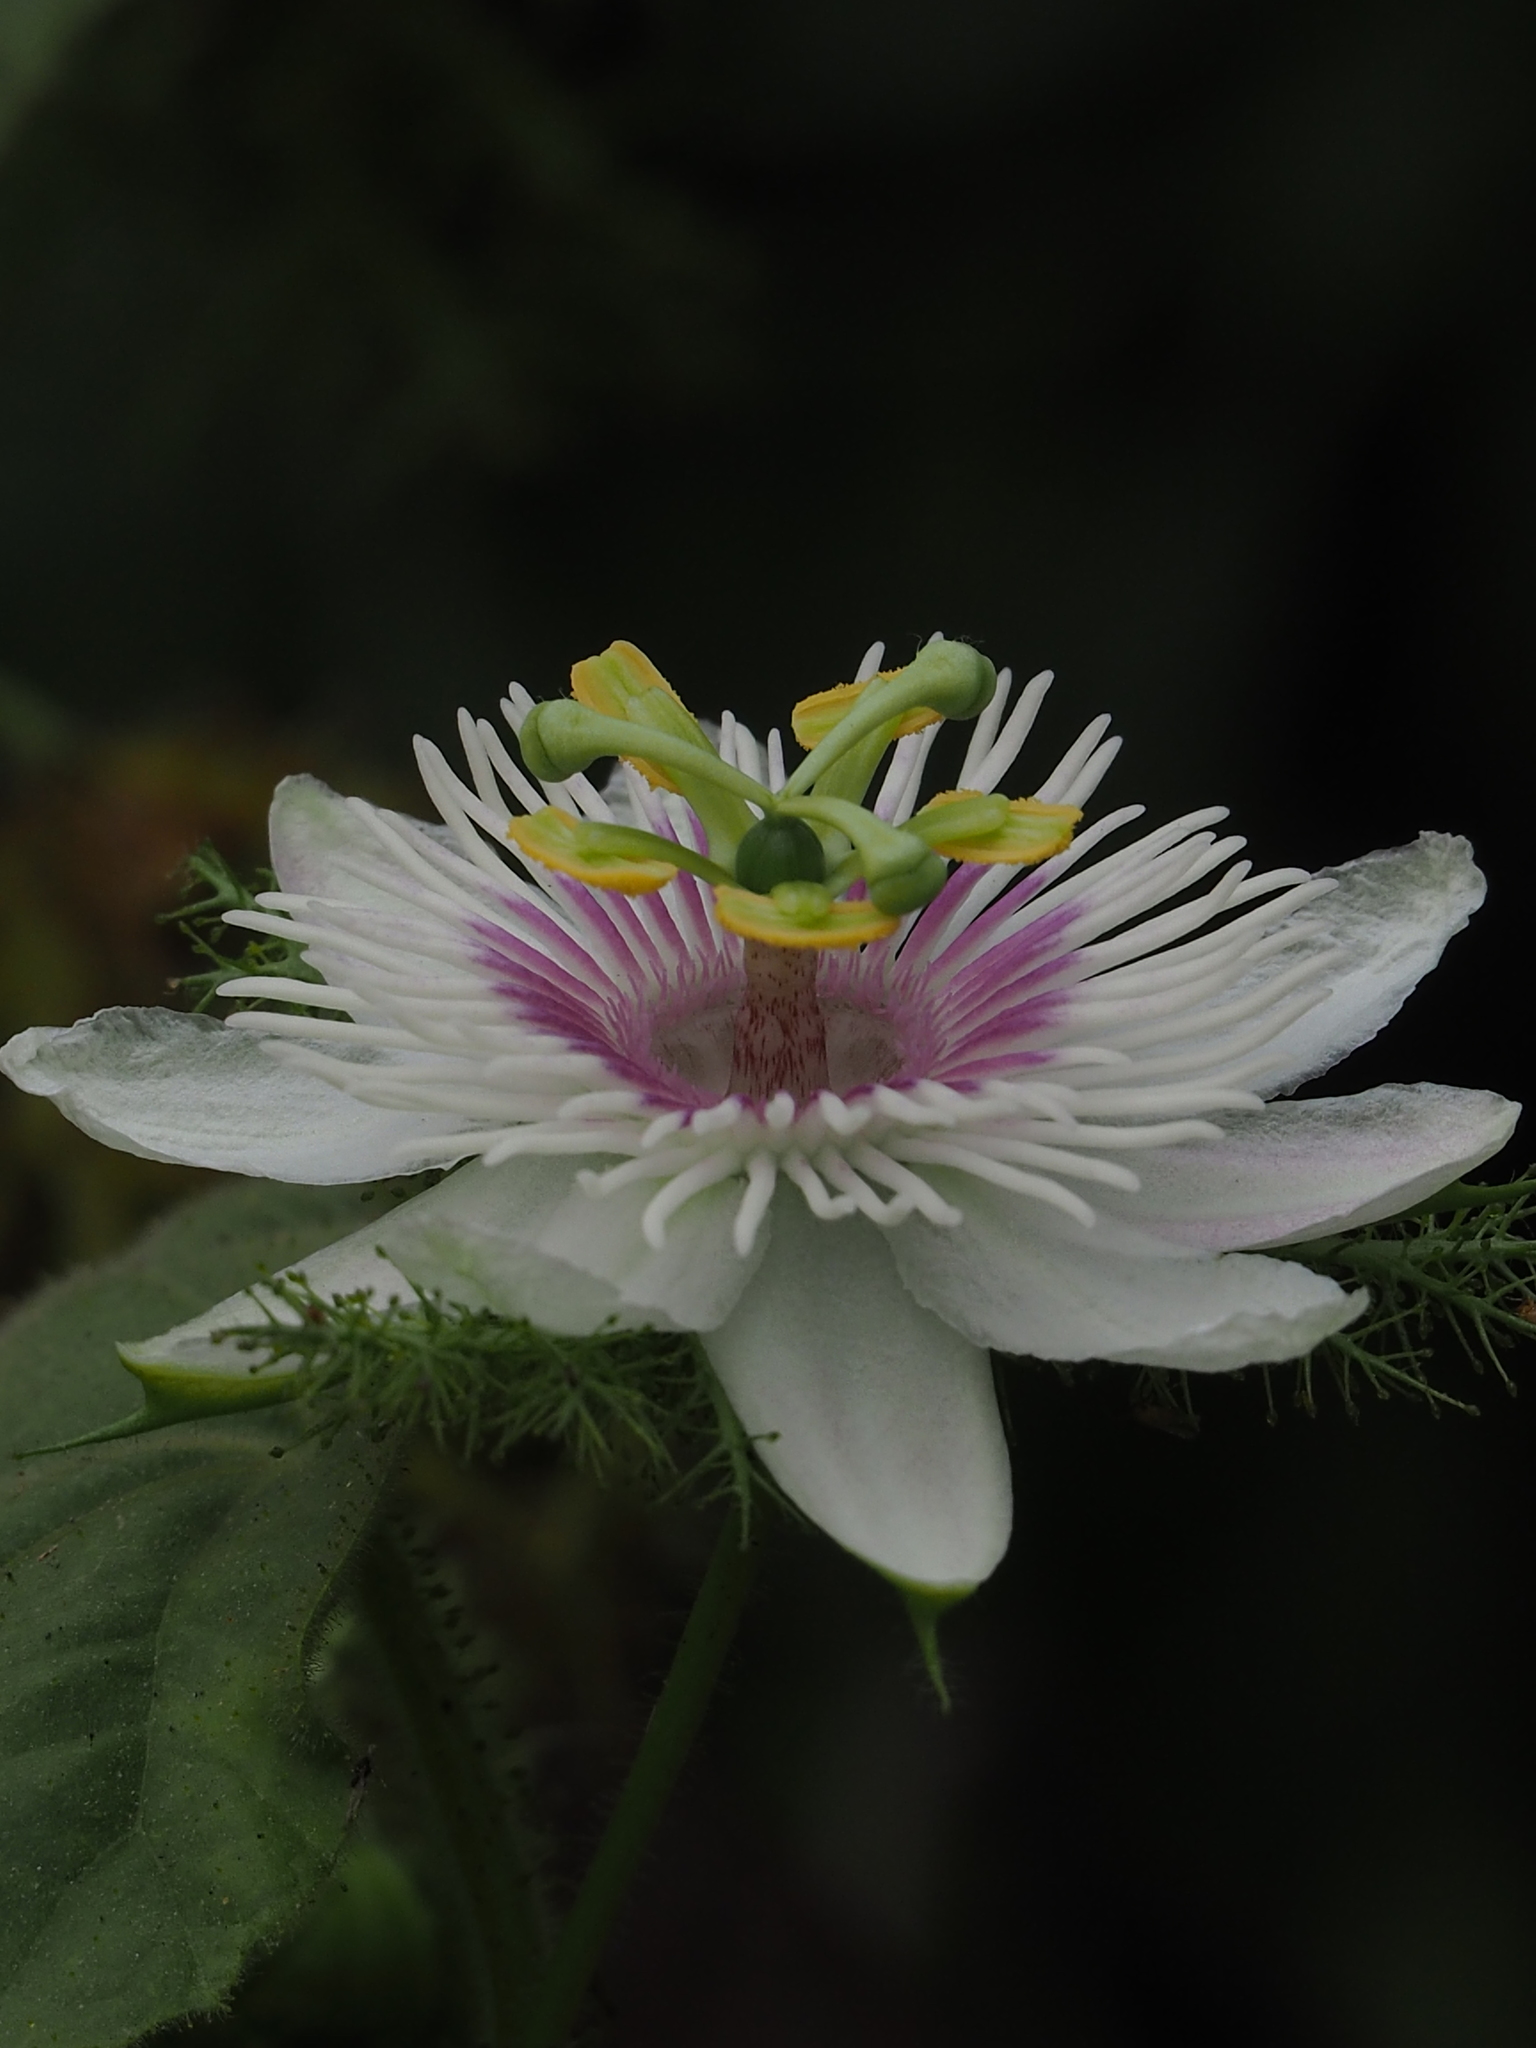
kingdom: Plantae
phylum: Tracheophyta
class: Magnoliopsida
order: Malpighiales
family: Passifloraceae
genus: Passiflora
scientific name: Passiflora vesicaria
